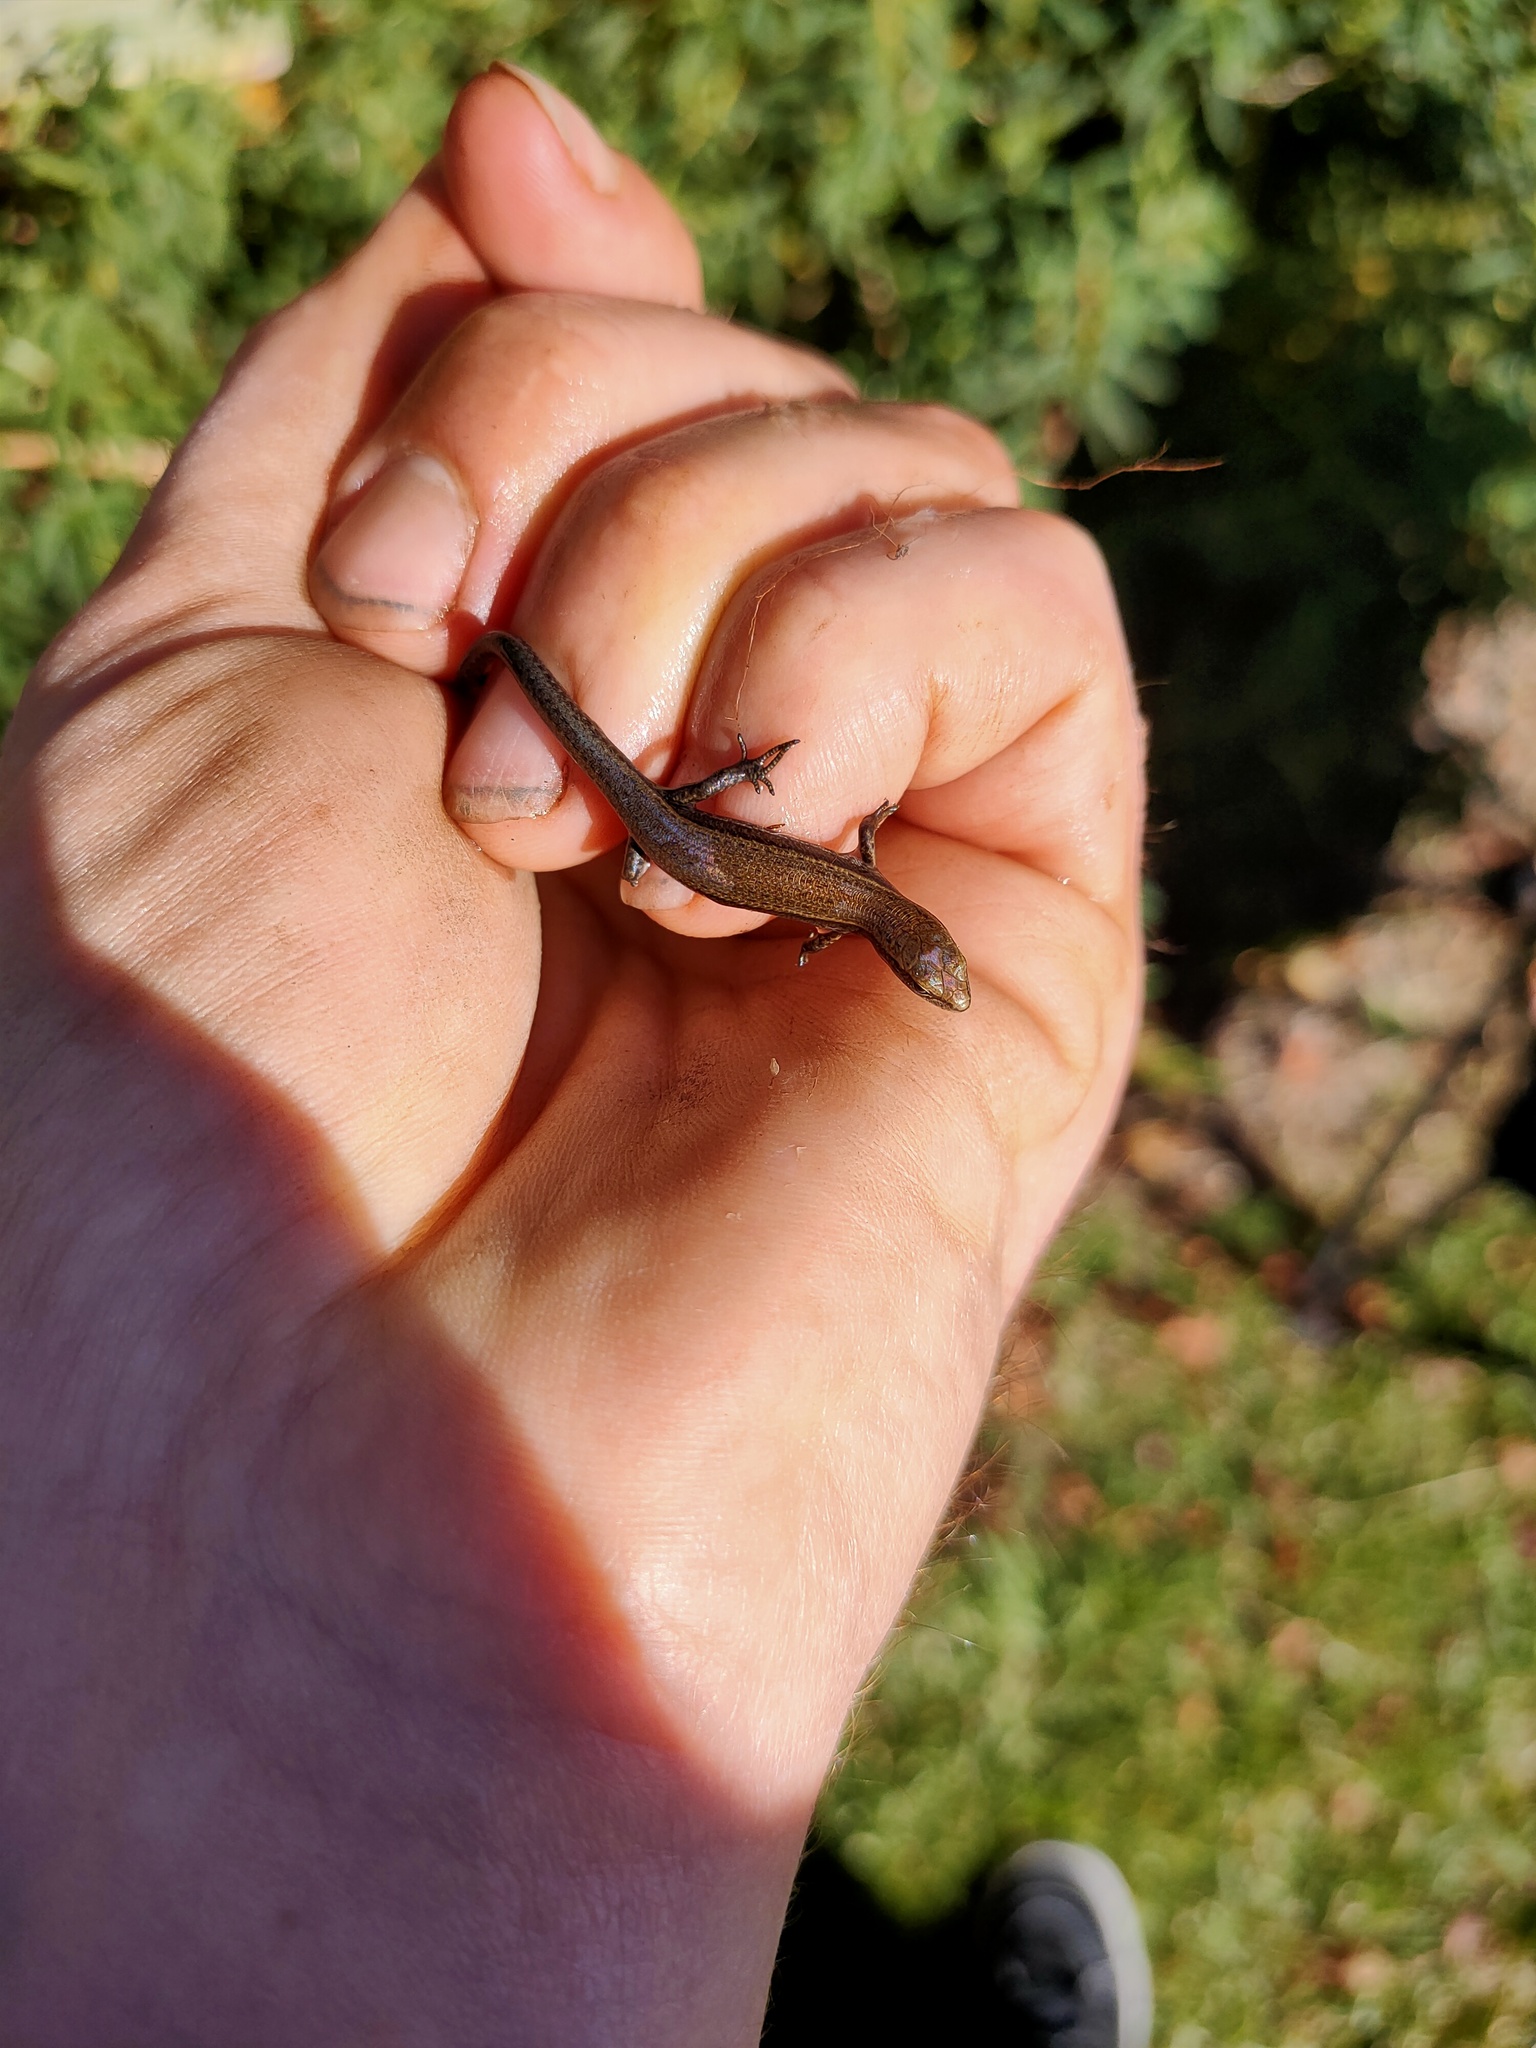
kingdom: Animalia
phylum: Chordata
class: Squamata
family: Scincidae
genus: Lampropholis
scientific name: Lampropholis delicata
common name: Plague skink
